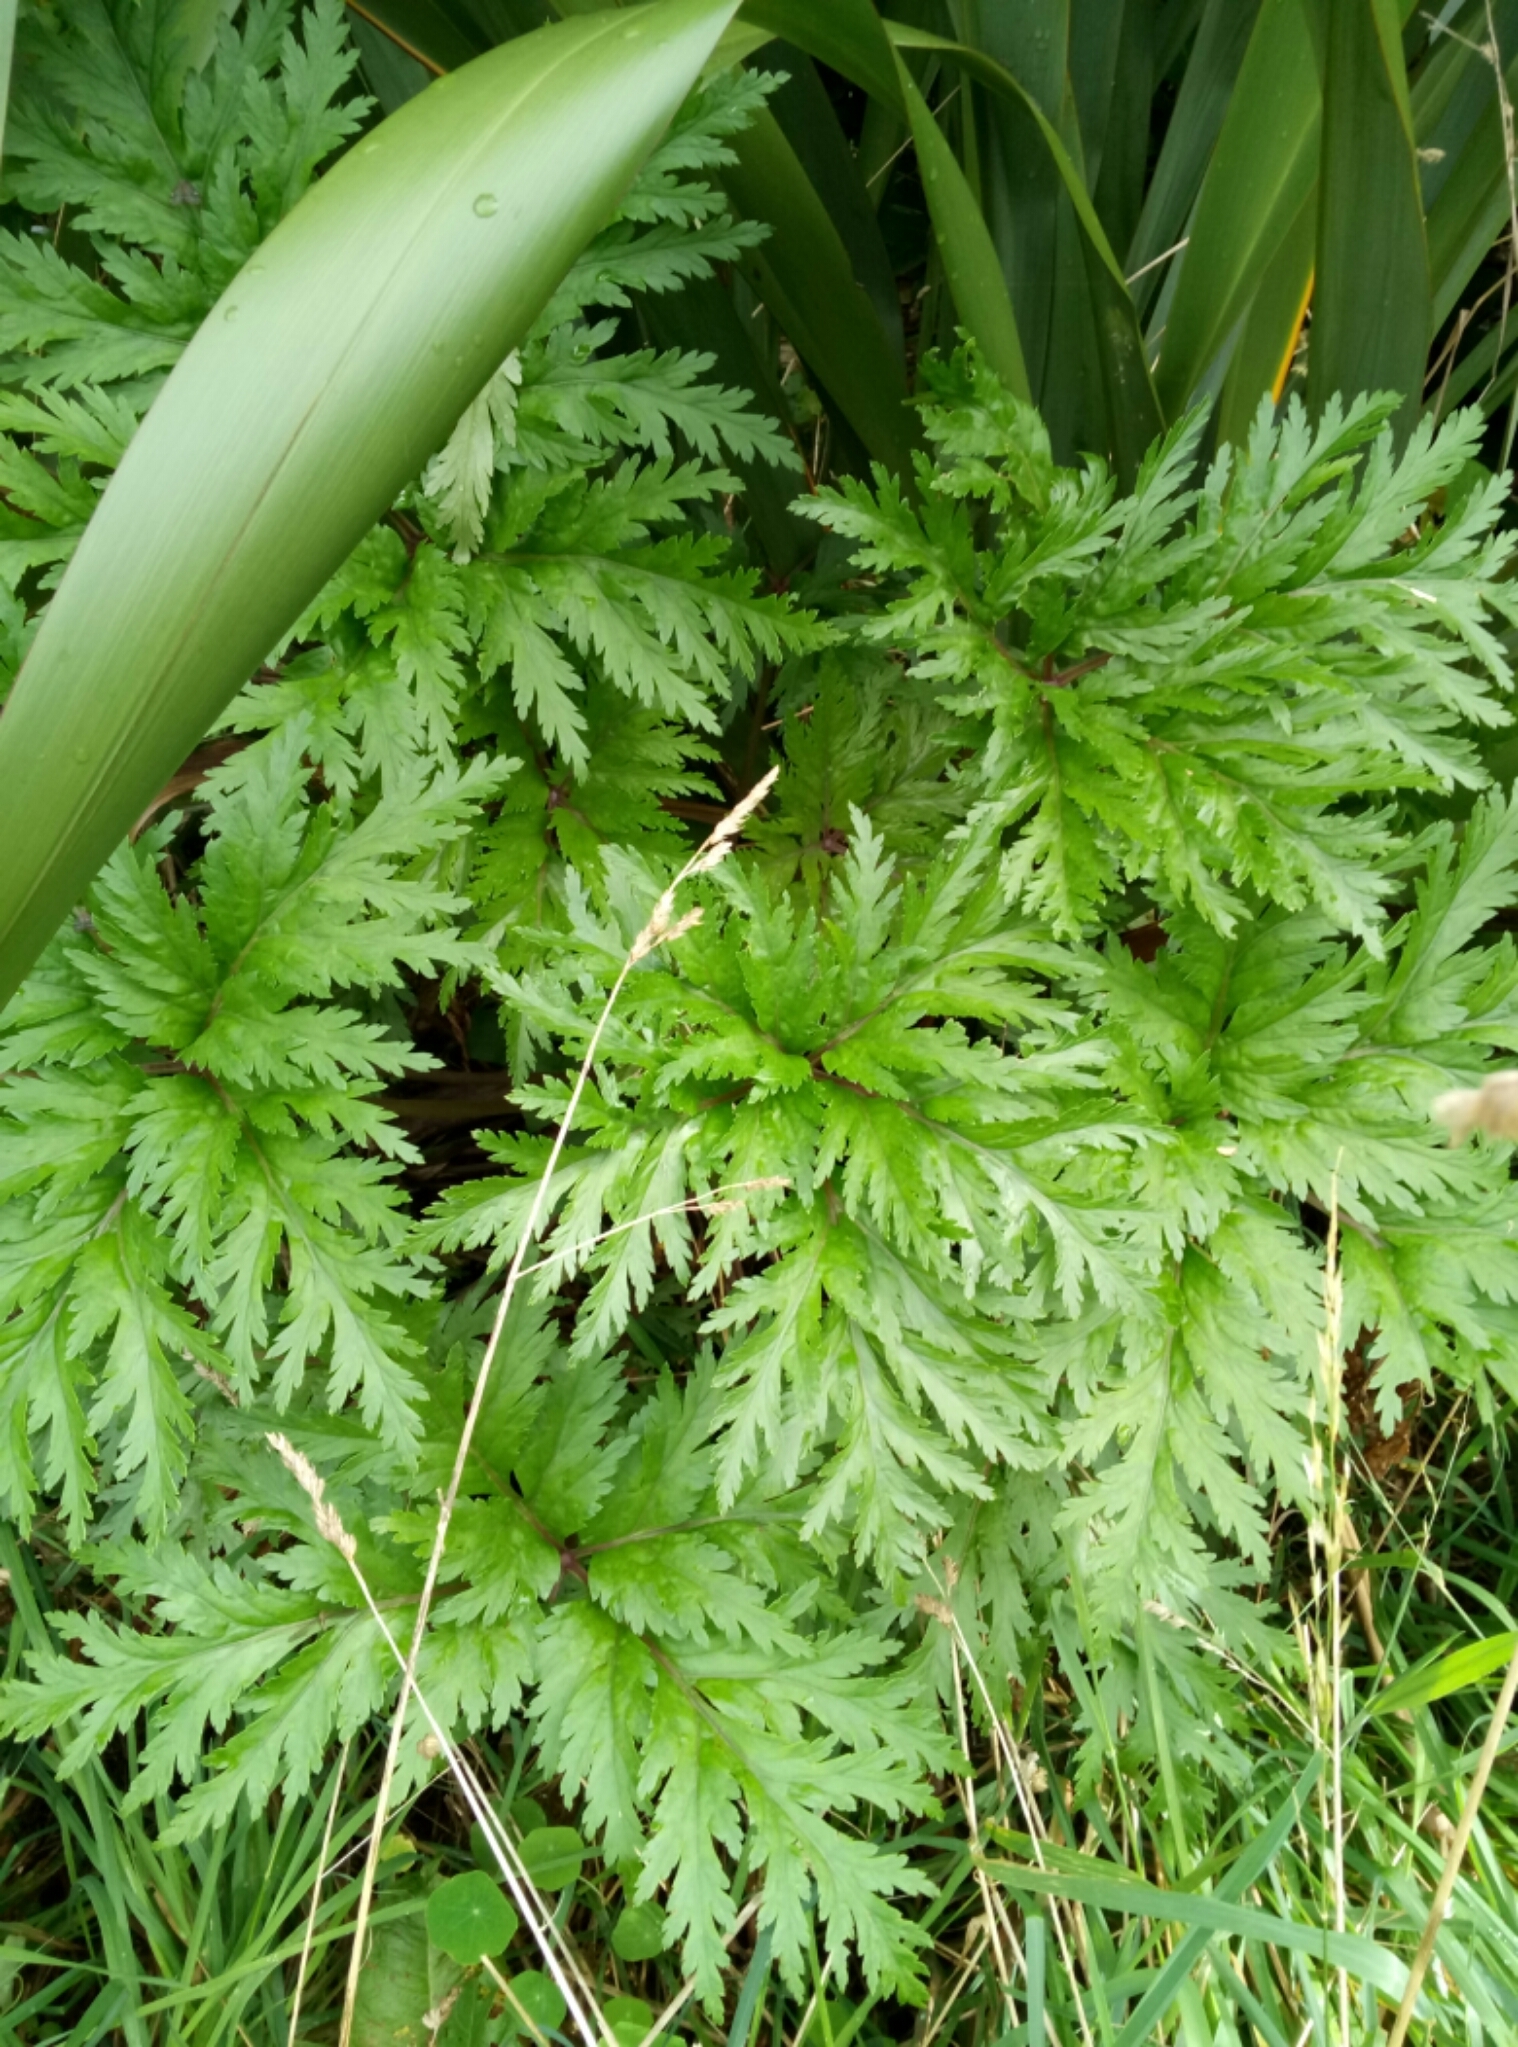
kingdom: Plantae
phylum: Tracheophyta
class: Magnoliopsida
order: Geraniales
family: Geraniaceae
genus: Geranium
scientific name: Geranium maderense
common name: Giant herb-robert
